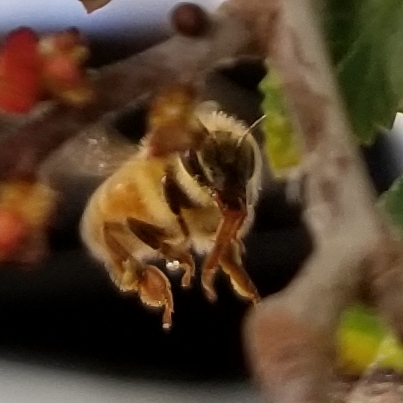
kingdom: Animalia
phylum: Arthropoda
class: Insecta
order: Hymenoptera
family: Apidae
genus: Apis
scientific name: Apis mellifera
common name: Honey bee
